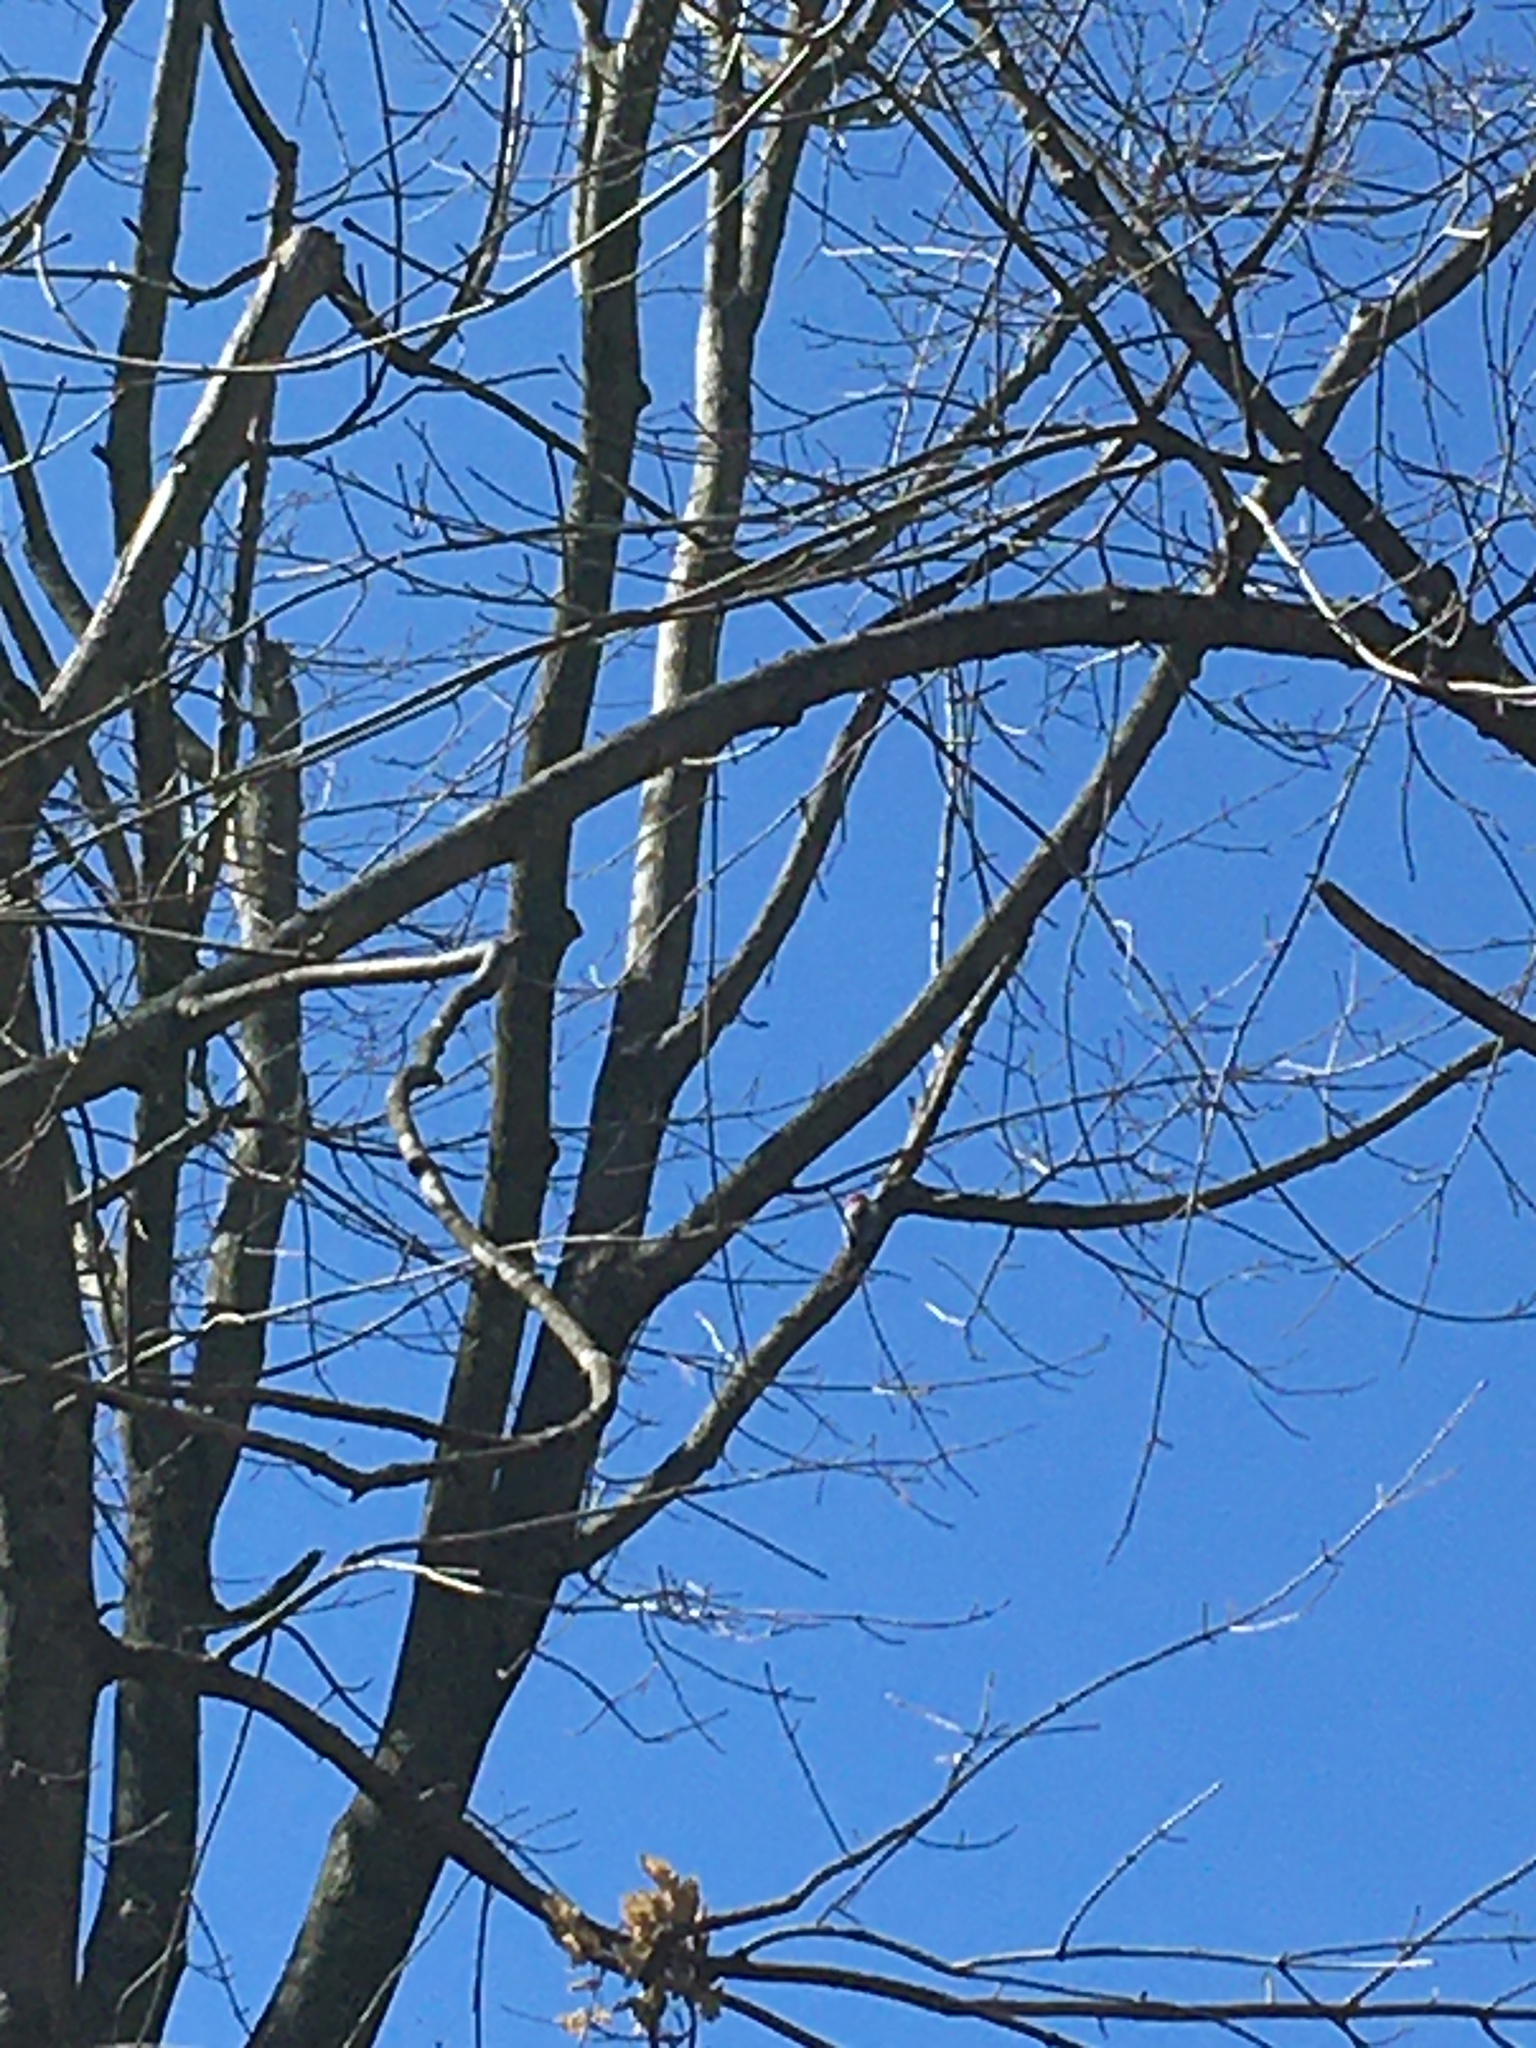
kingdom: Animalia
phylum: Chordata
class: Aves
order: Piciformes
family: Picidae
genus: Melanerpes
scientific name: Melanerpes carolinus
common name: Red-bellied woodpecker
